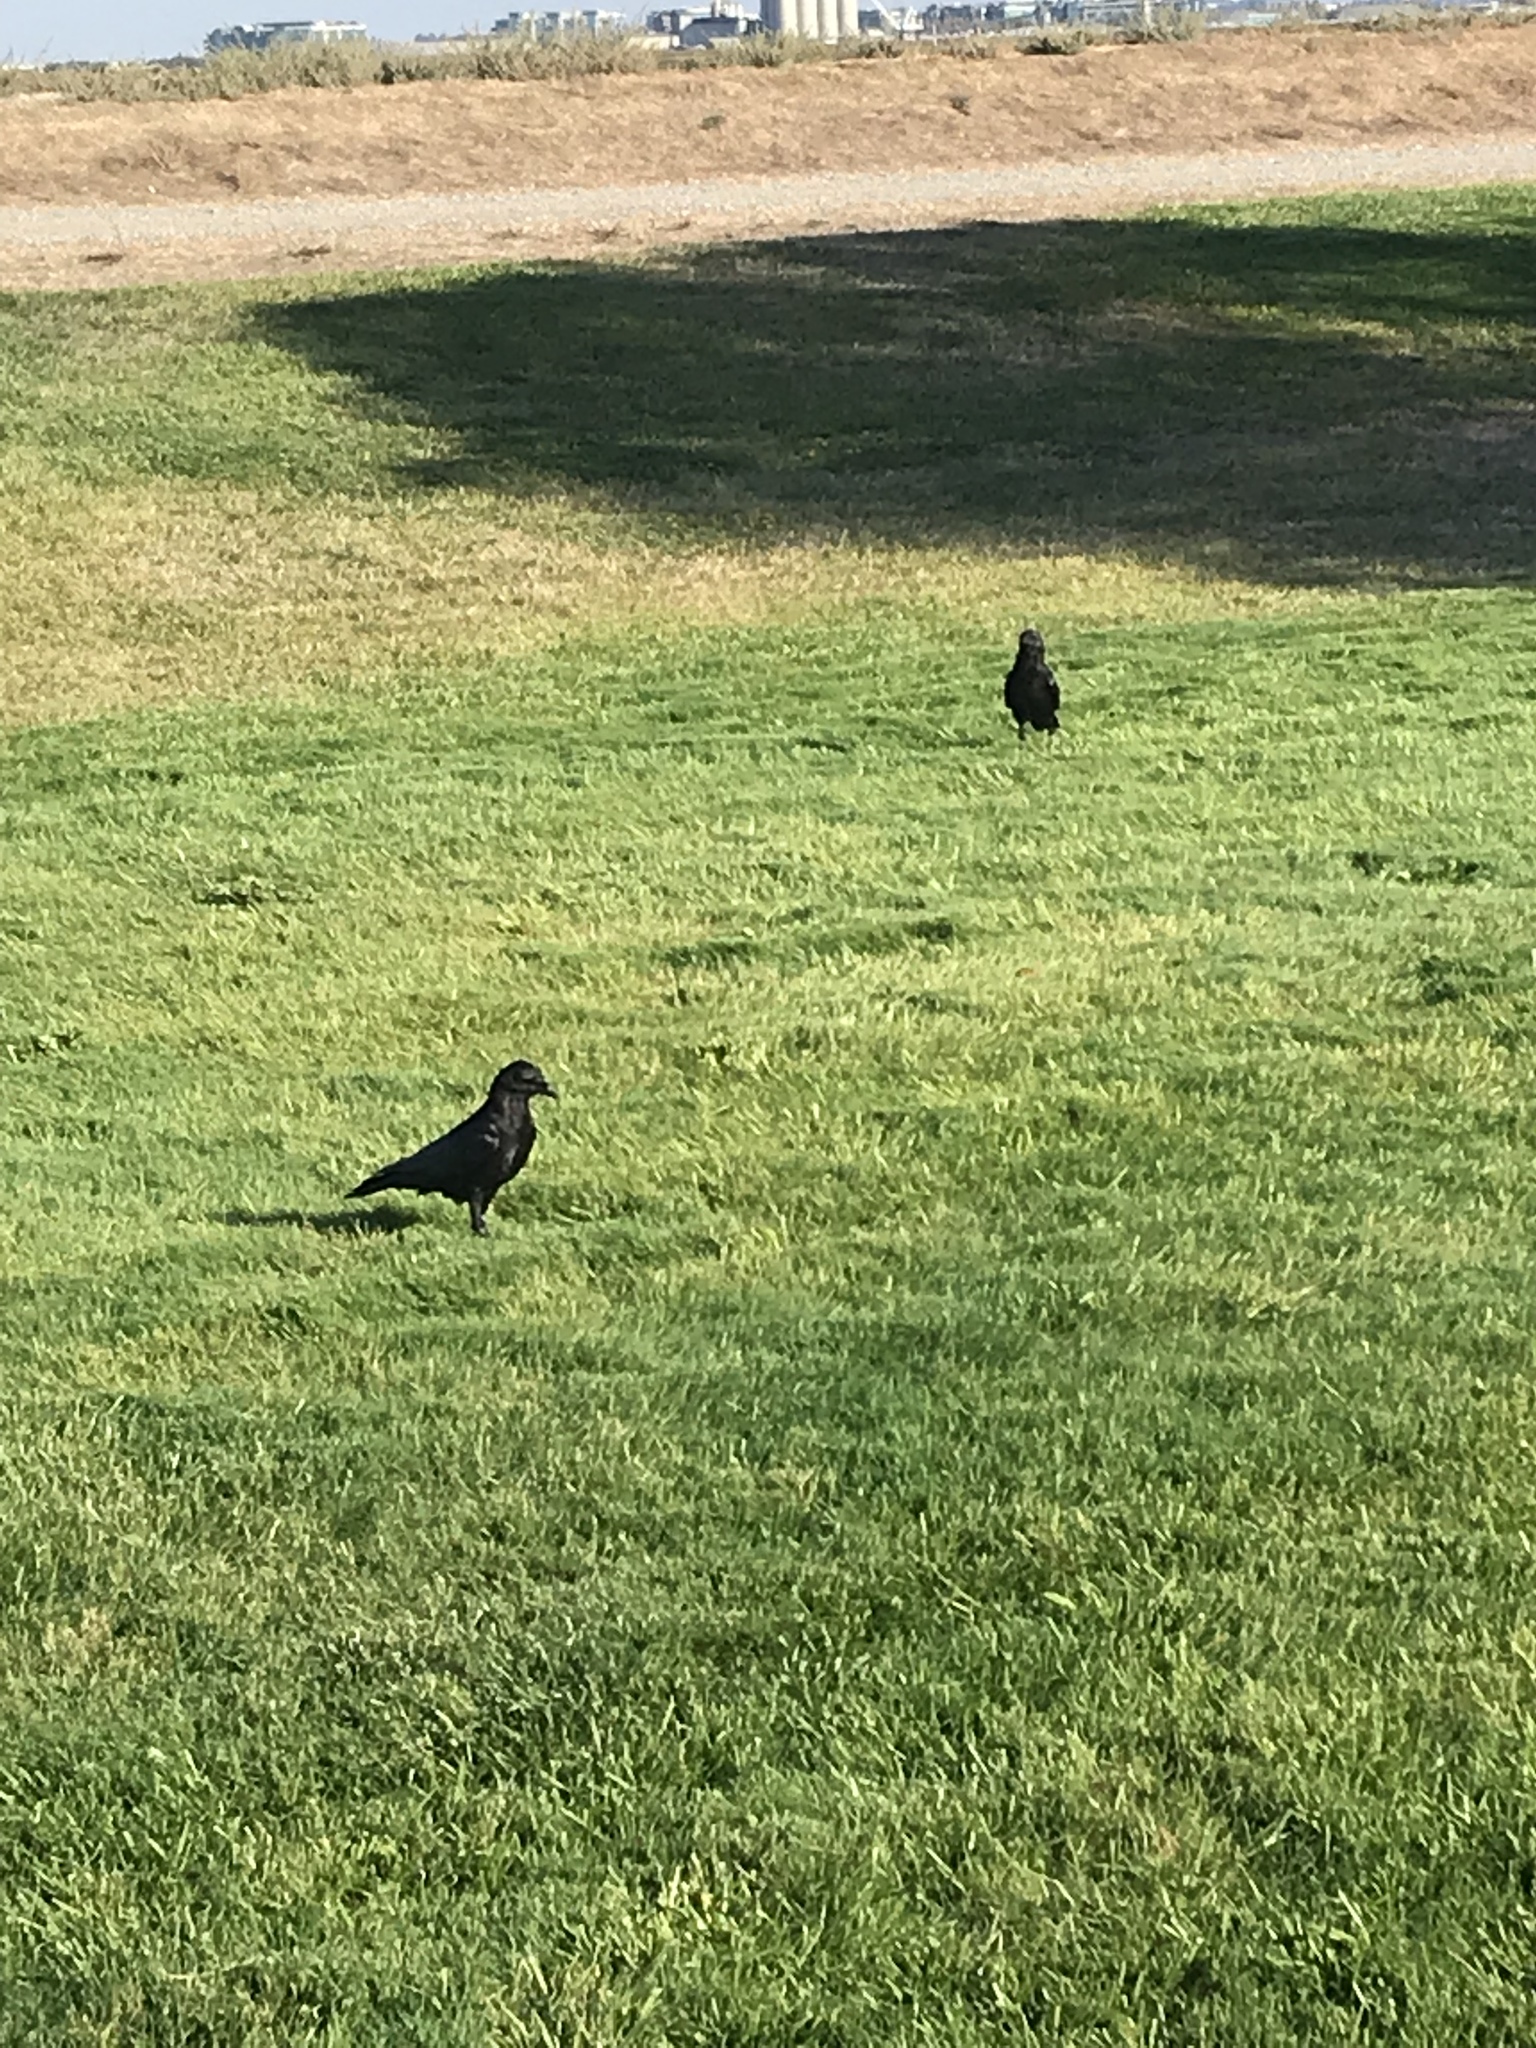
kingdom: Animalia
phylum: Chordata
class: Aves
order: Passeriformes
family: Corvidae
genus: Corvus
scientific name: Corvus brachyrhynchos
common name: American crow
